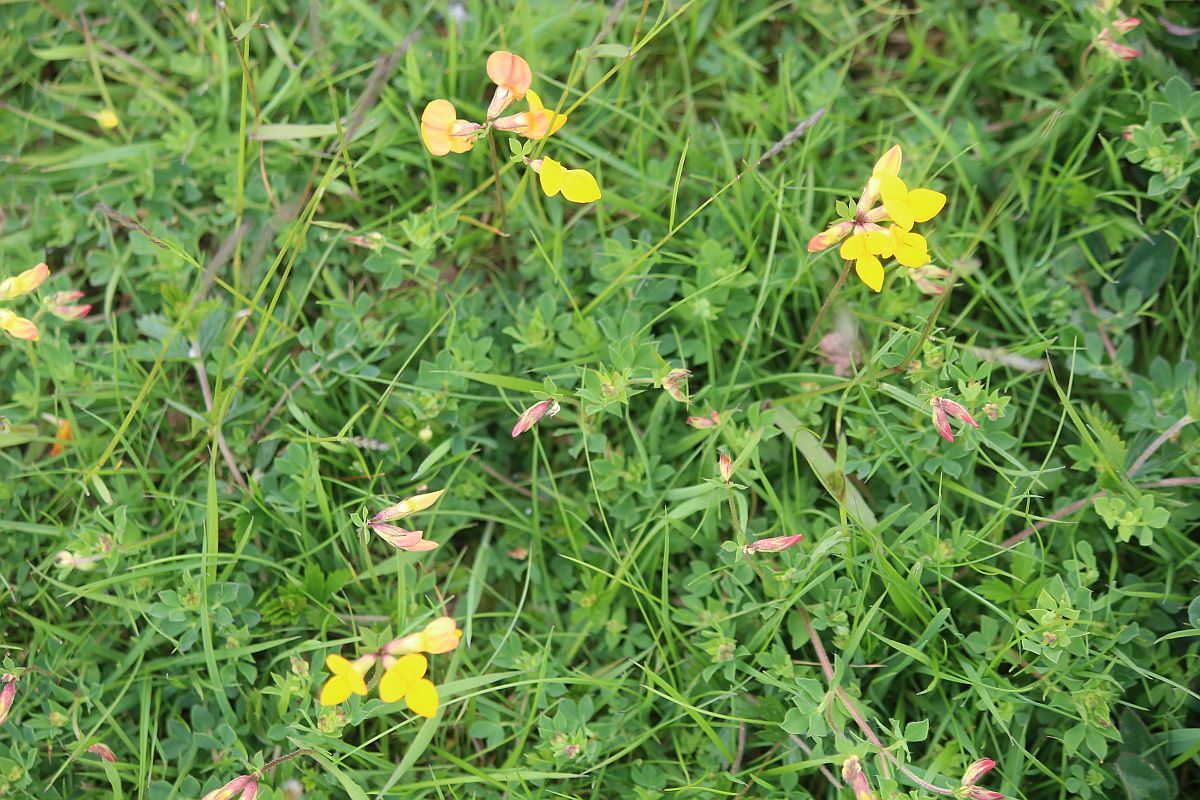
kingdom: Plantae
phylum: Tracheophyta
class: Magnoliopsida
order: Fabales
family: Fabaceae
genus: Lotus
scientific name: Lotus corniculatus
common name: Common bird's-foot-trefoil
